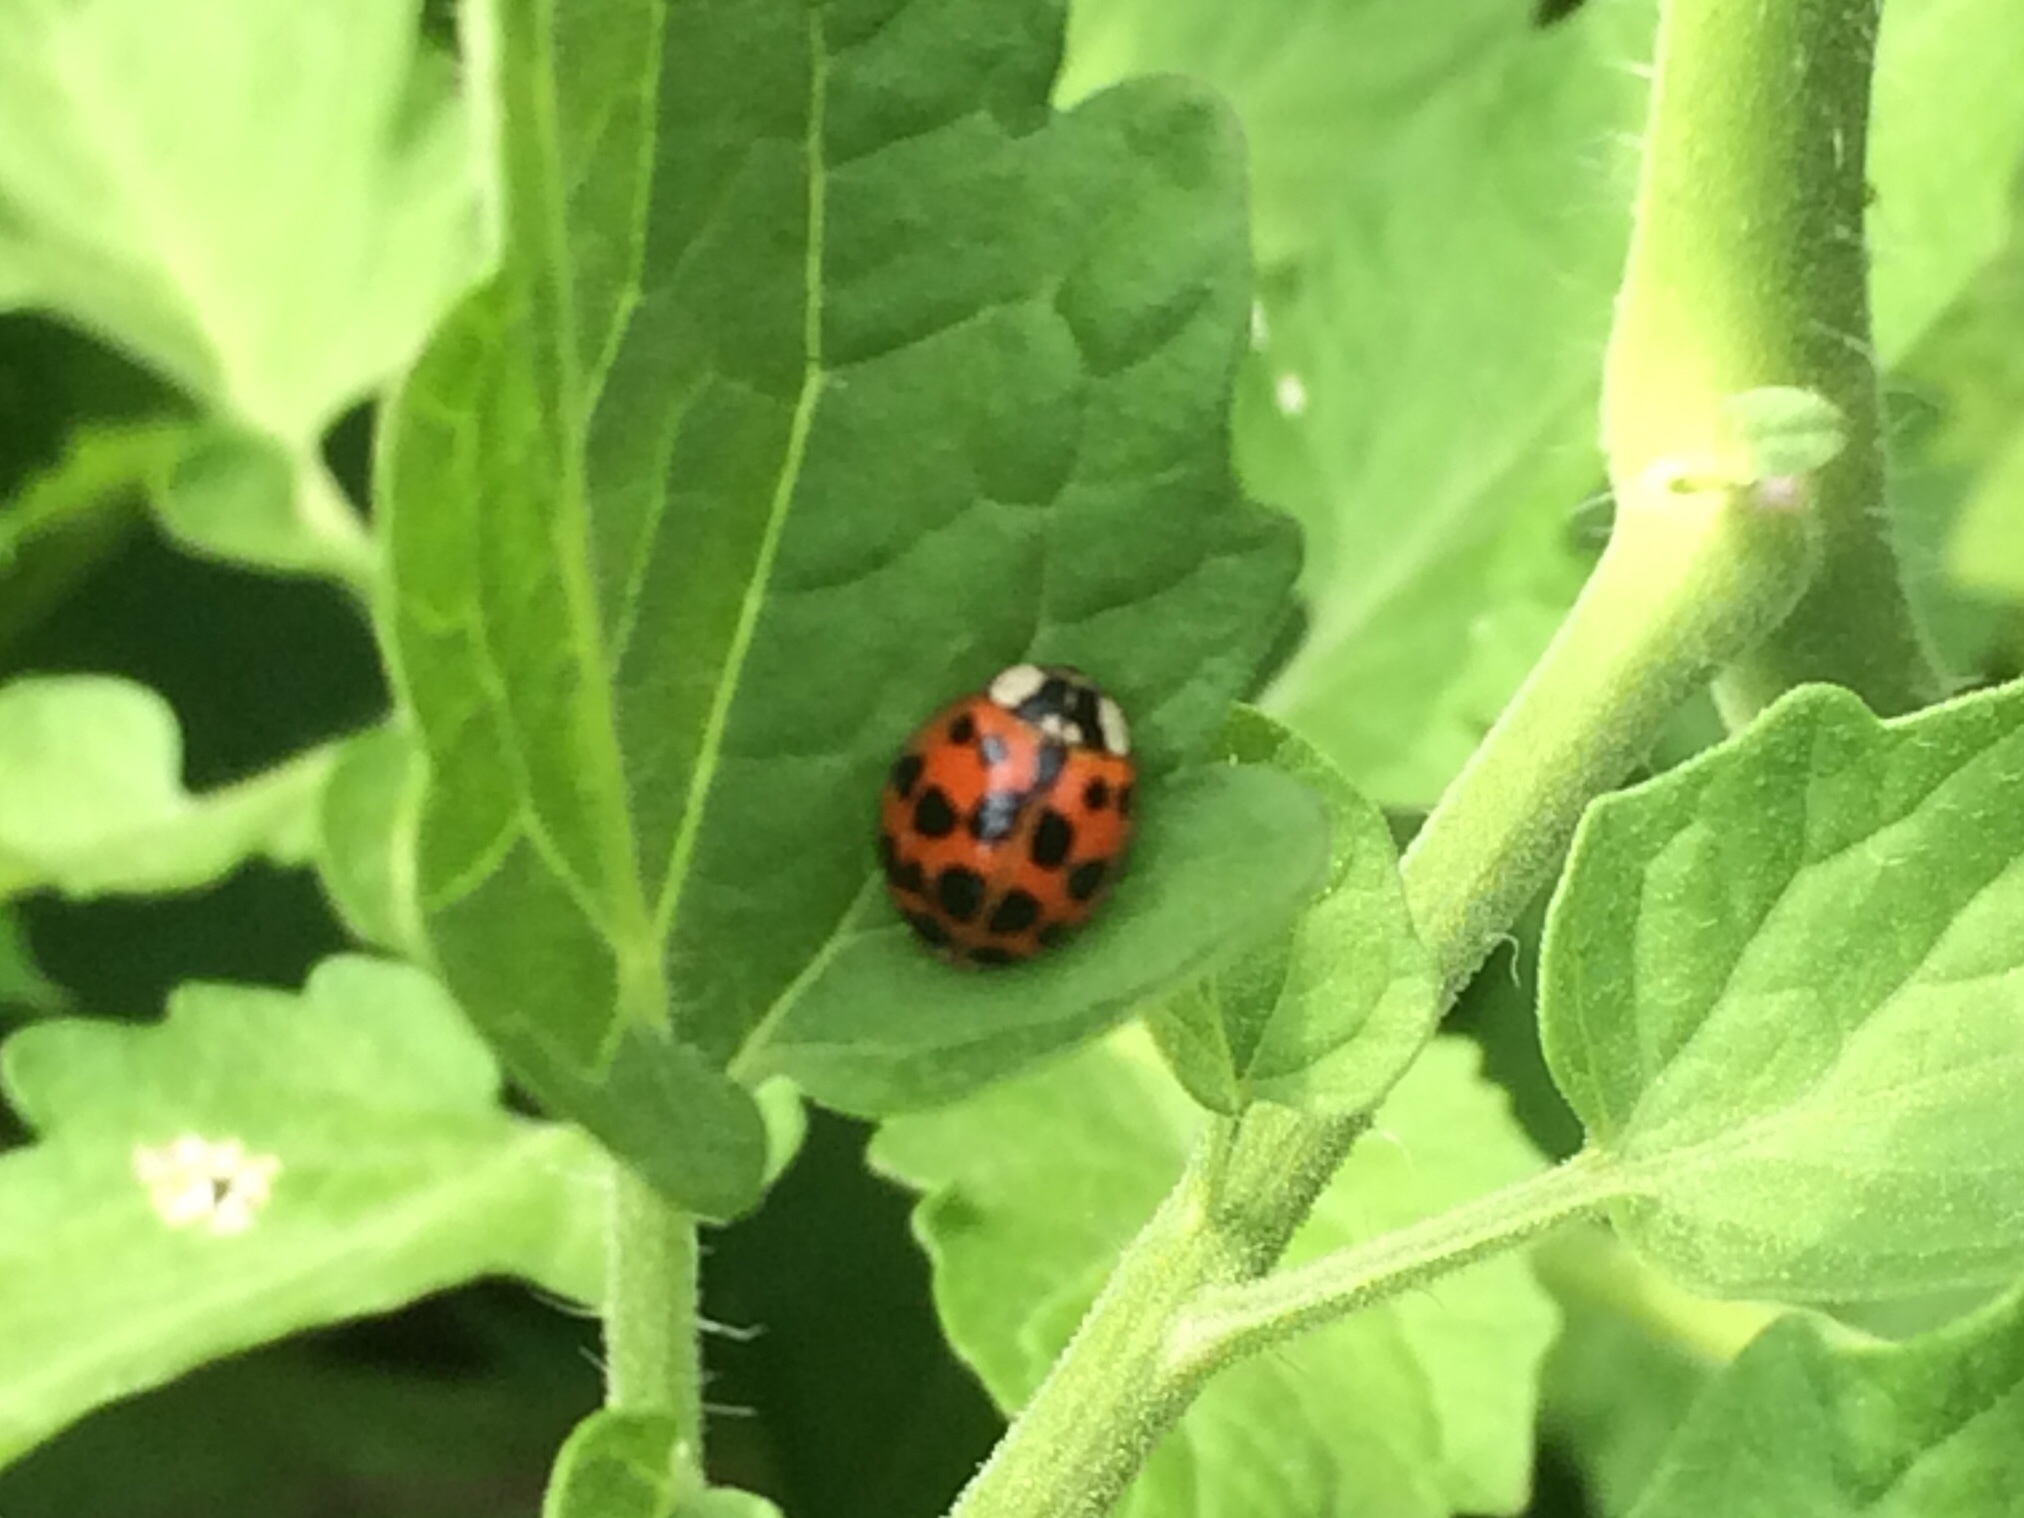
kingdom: Animalia
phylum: Arthropoda
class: Insecta
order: Coleoptera
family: Coccinellidae
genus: Harmonia
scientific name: Harmonia axyridis
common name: Harlequin ladybird
